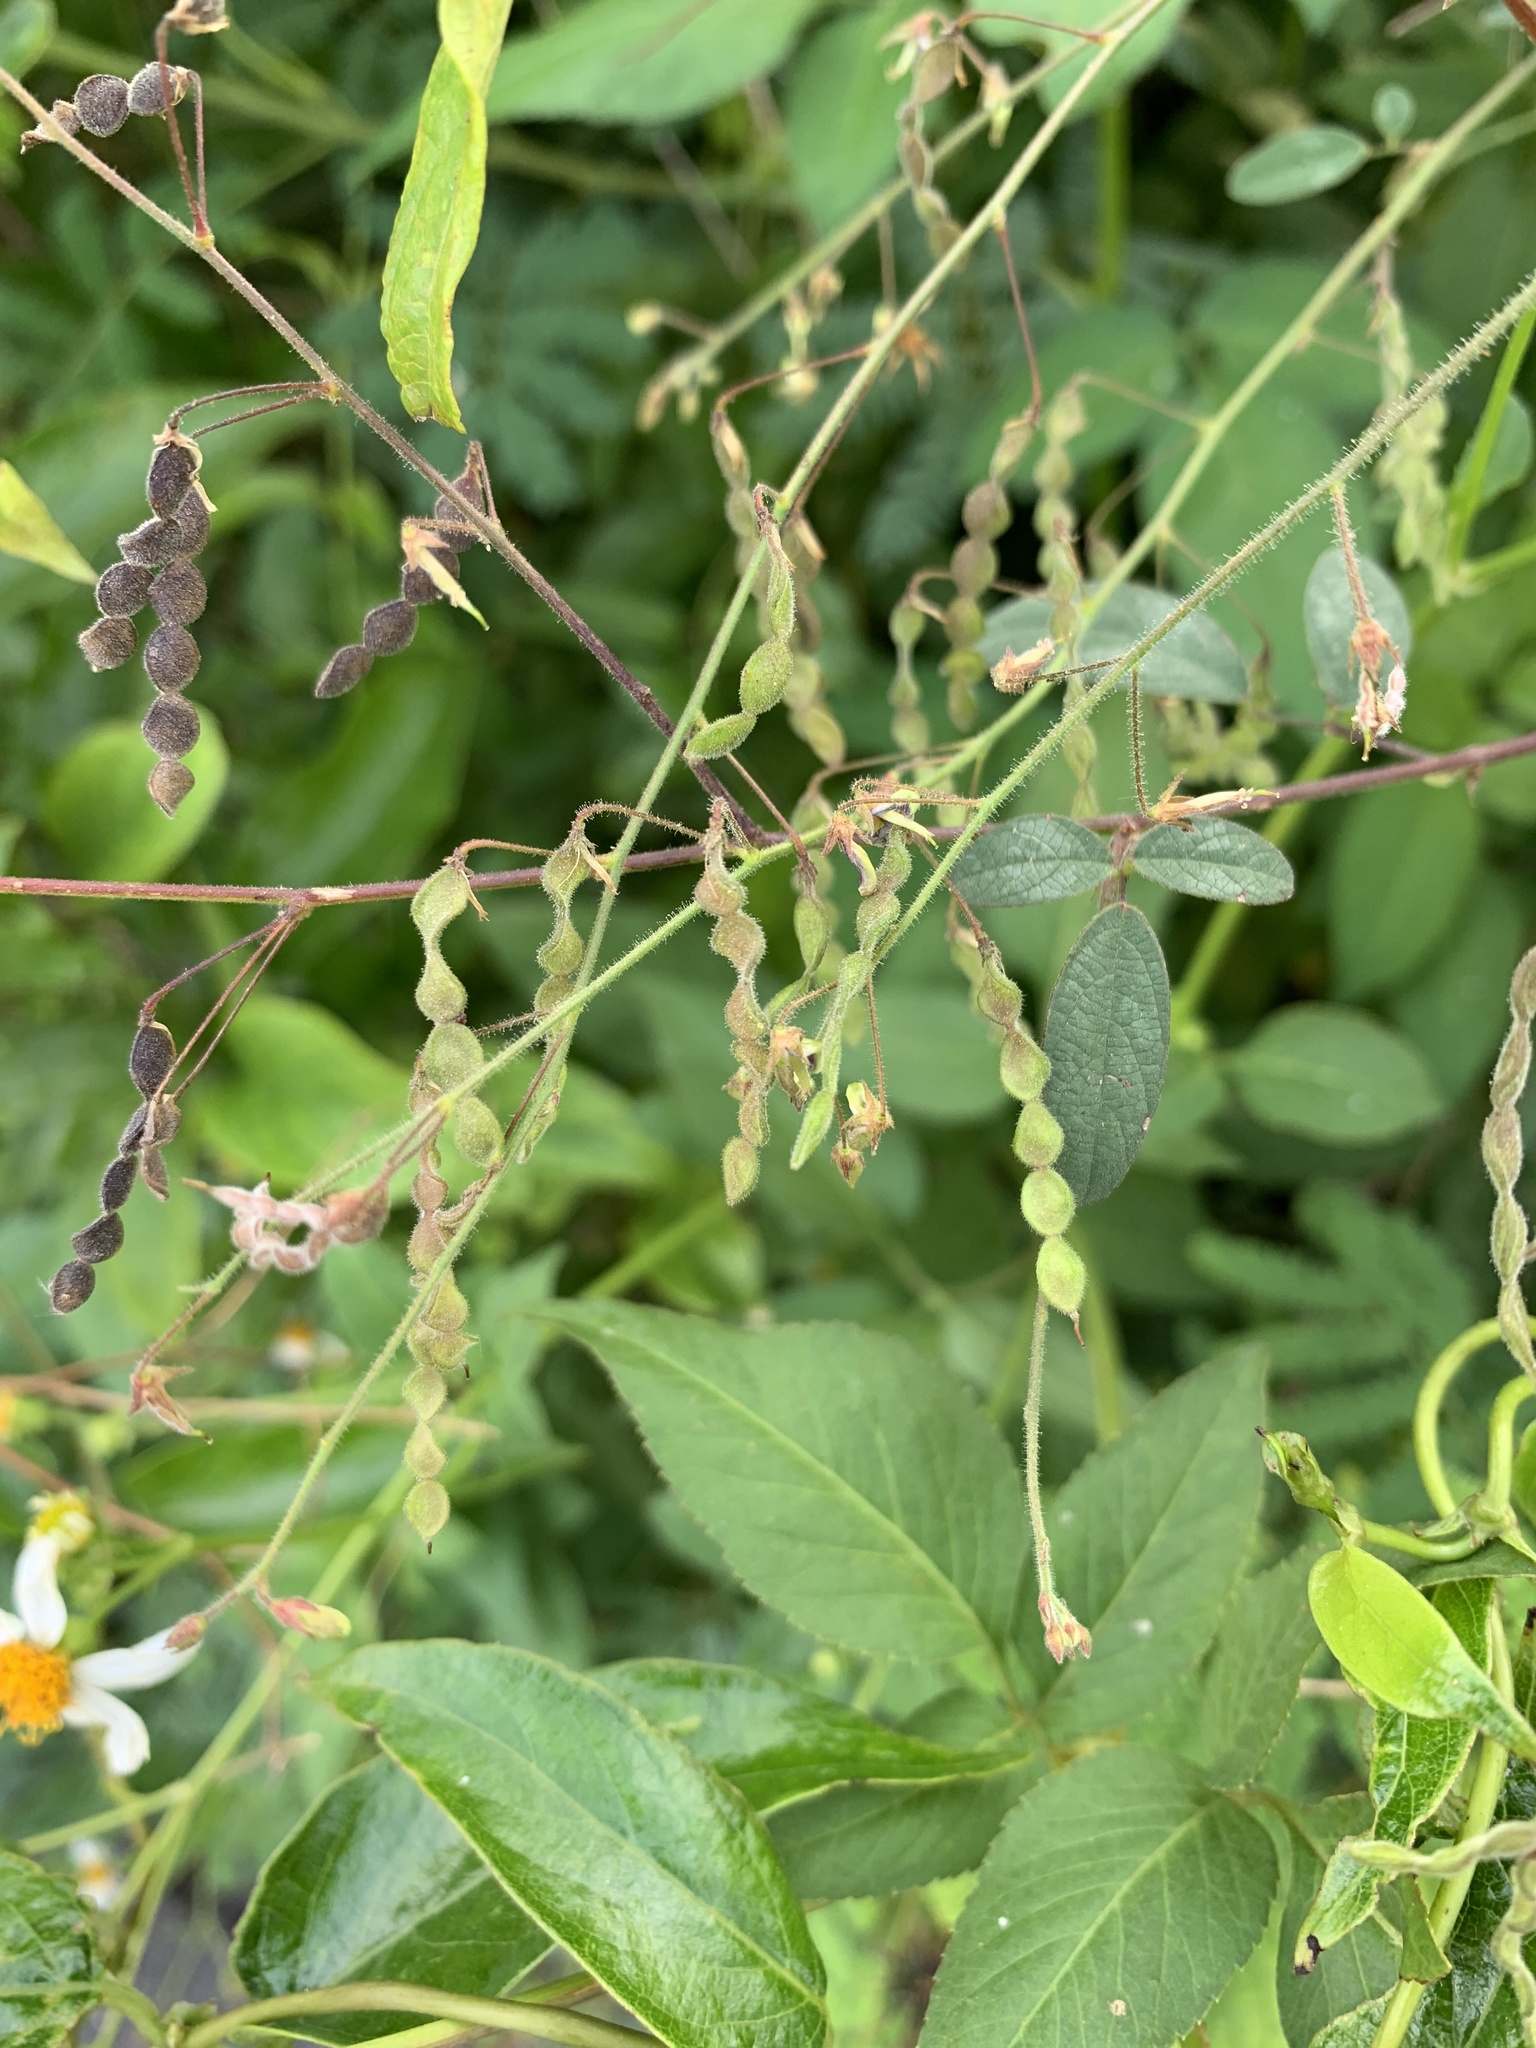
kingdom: Plantae
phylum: Tracheophyta
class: Magnoliopsida
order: Fabales
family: Fabaceae
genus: Desmodium
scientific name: Desmodium tortuosum
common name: Dixie ticktrefoil
